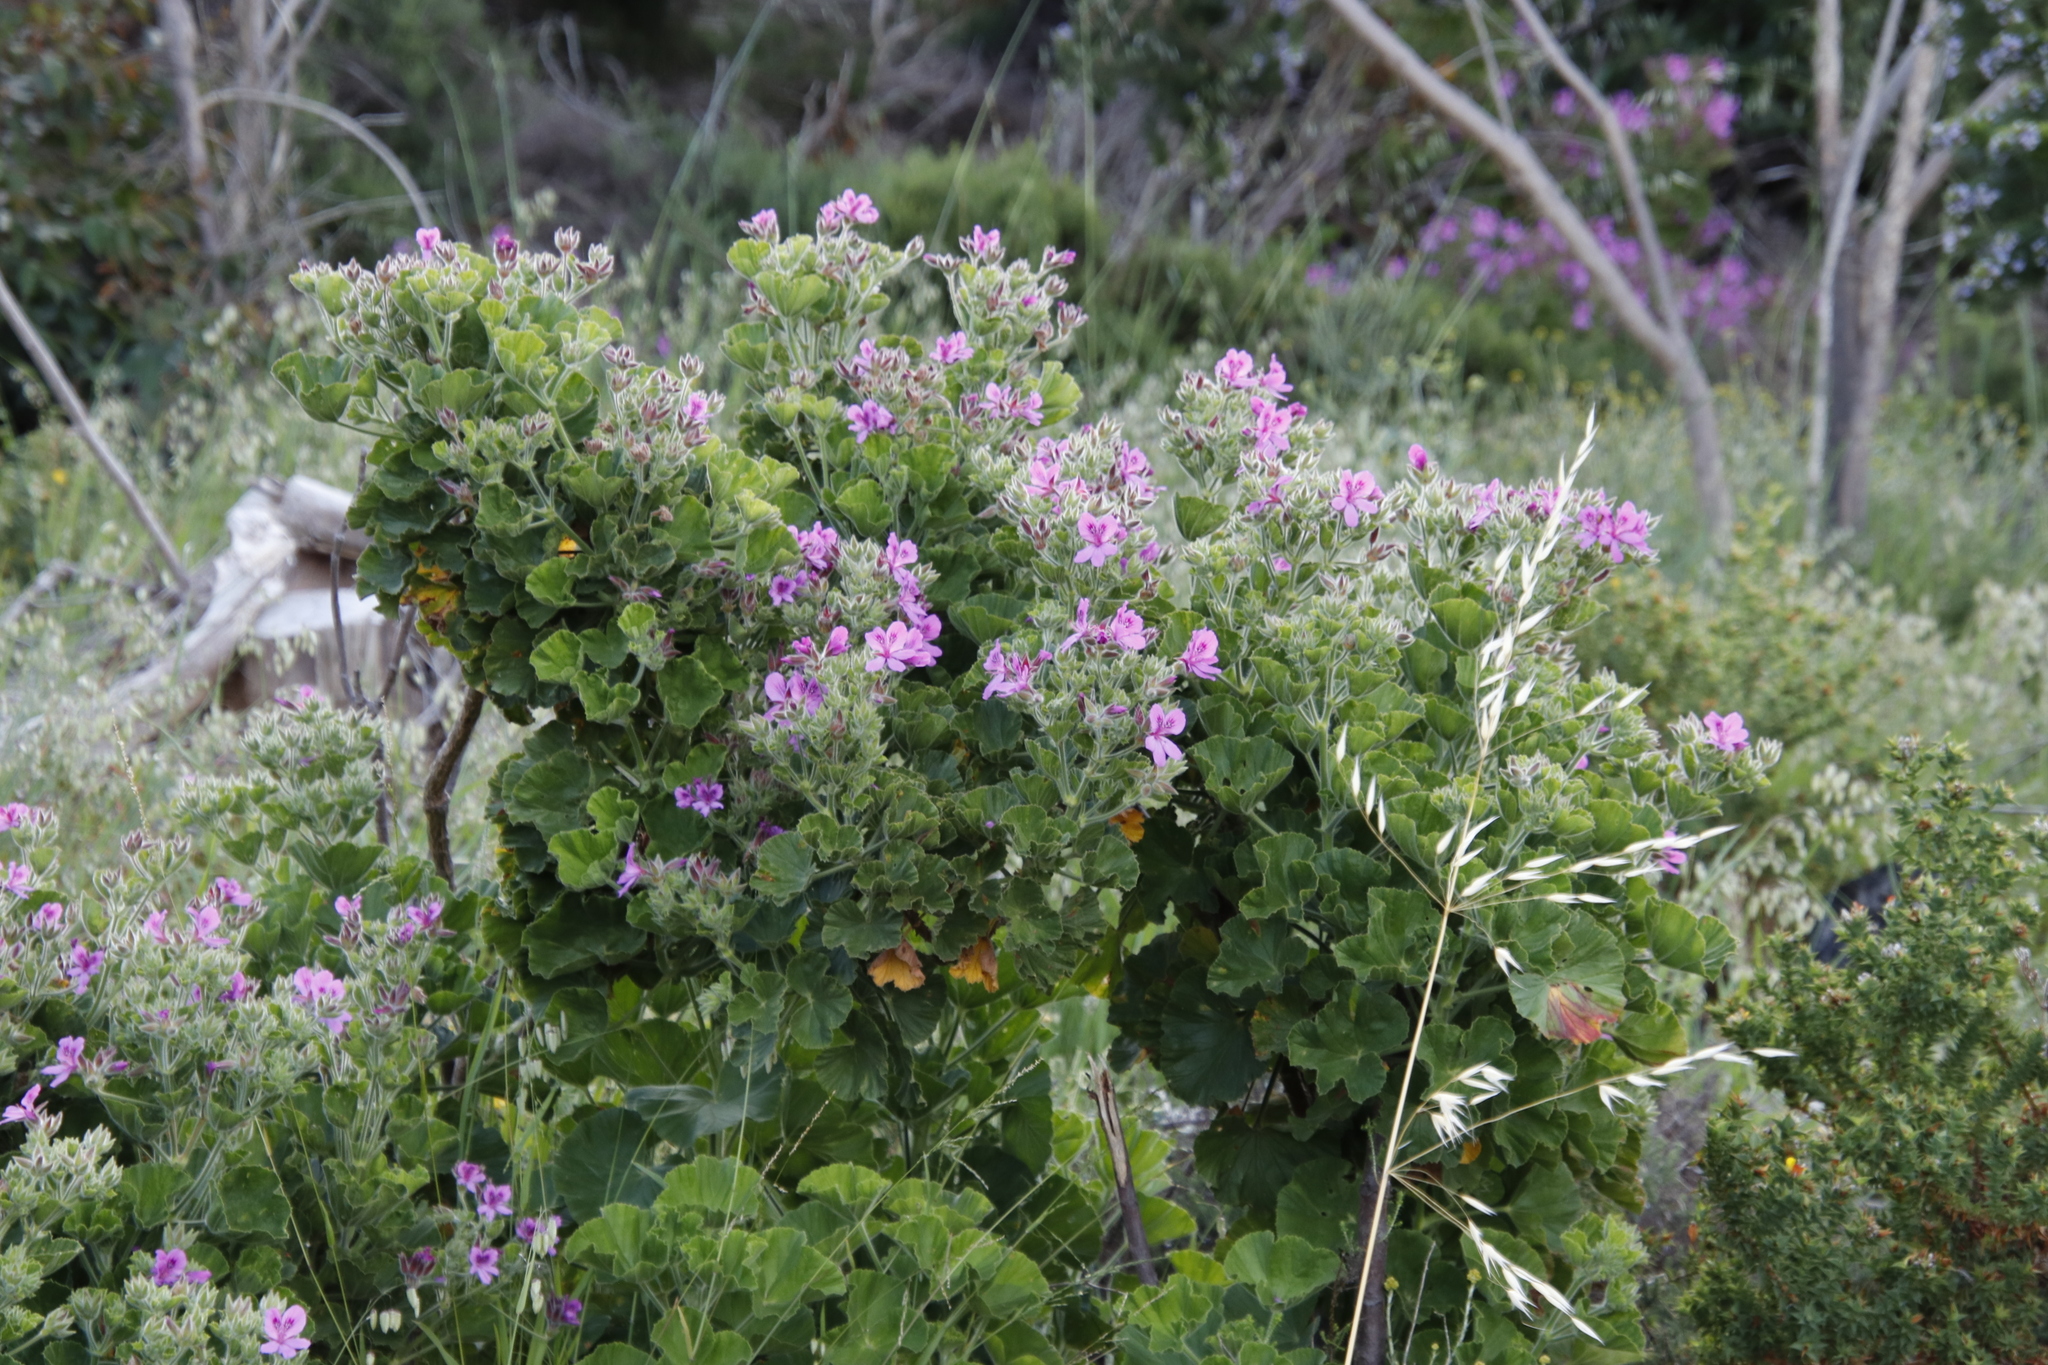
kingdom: Plantae
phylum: Tracheophyta
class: Magnoliopsida
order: Geraniales
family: Geraniaceae
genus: Pelargonium
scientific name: Pelargonium cucullatum
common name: Tree pelargonium
